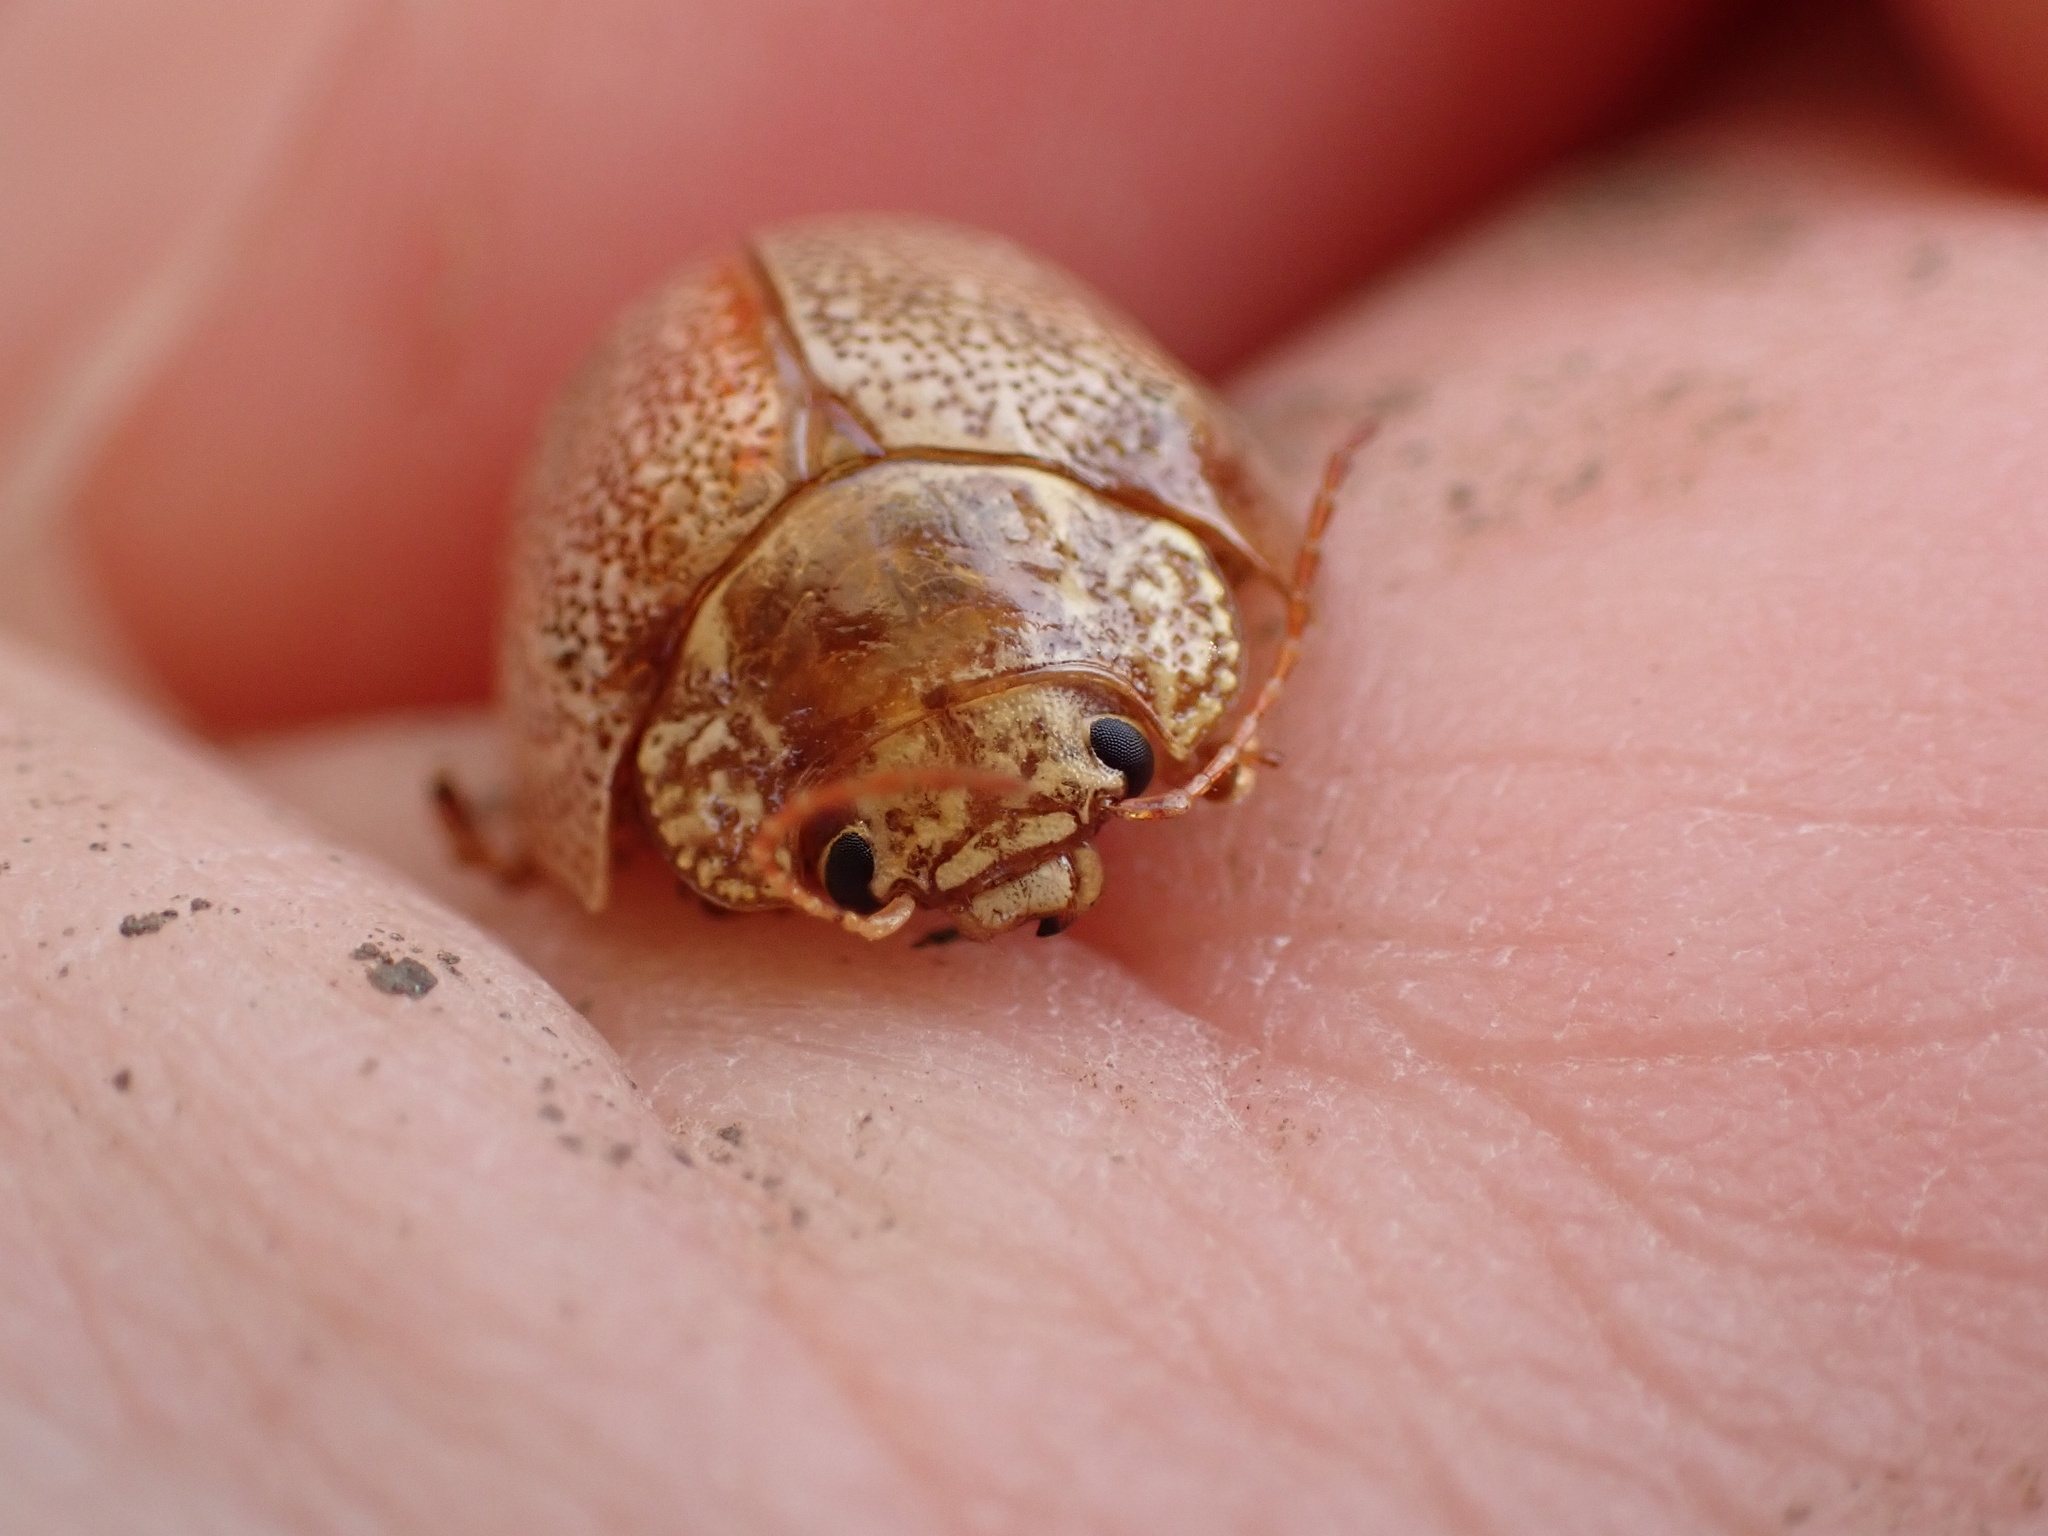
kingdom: Animalia
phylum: Arthropoda
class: Insecta
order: Coleoptera
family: Chrysomelidae
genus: Paropsis
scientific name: Paropsis
